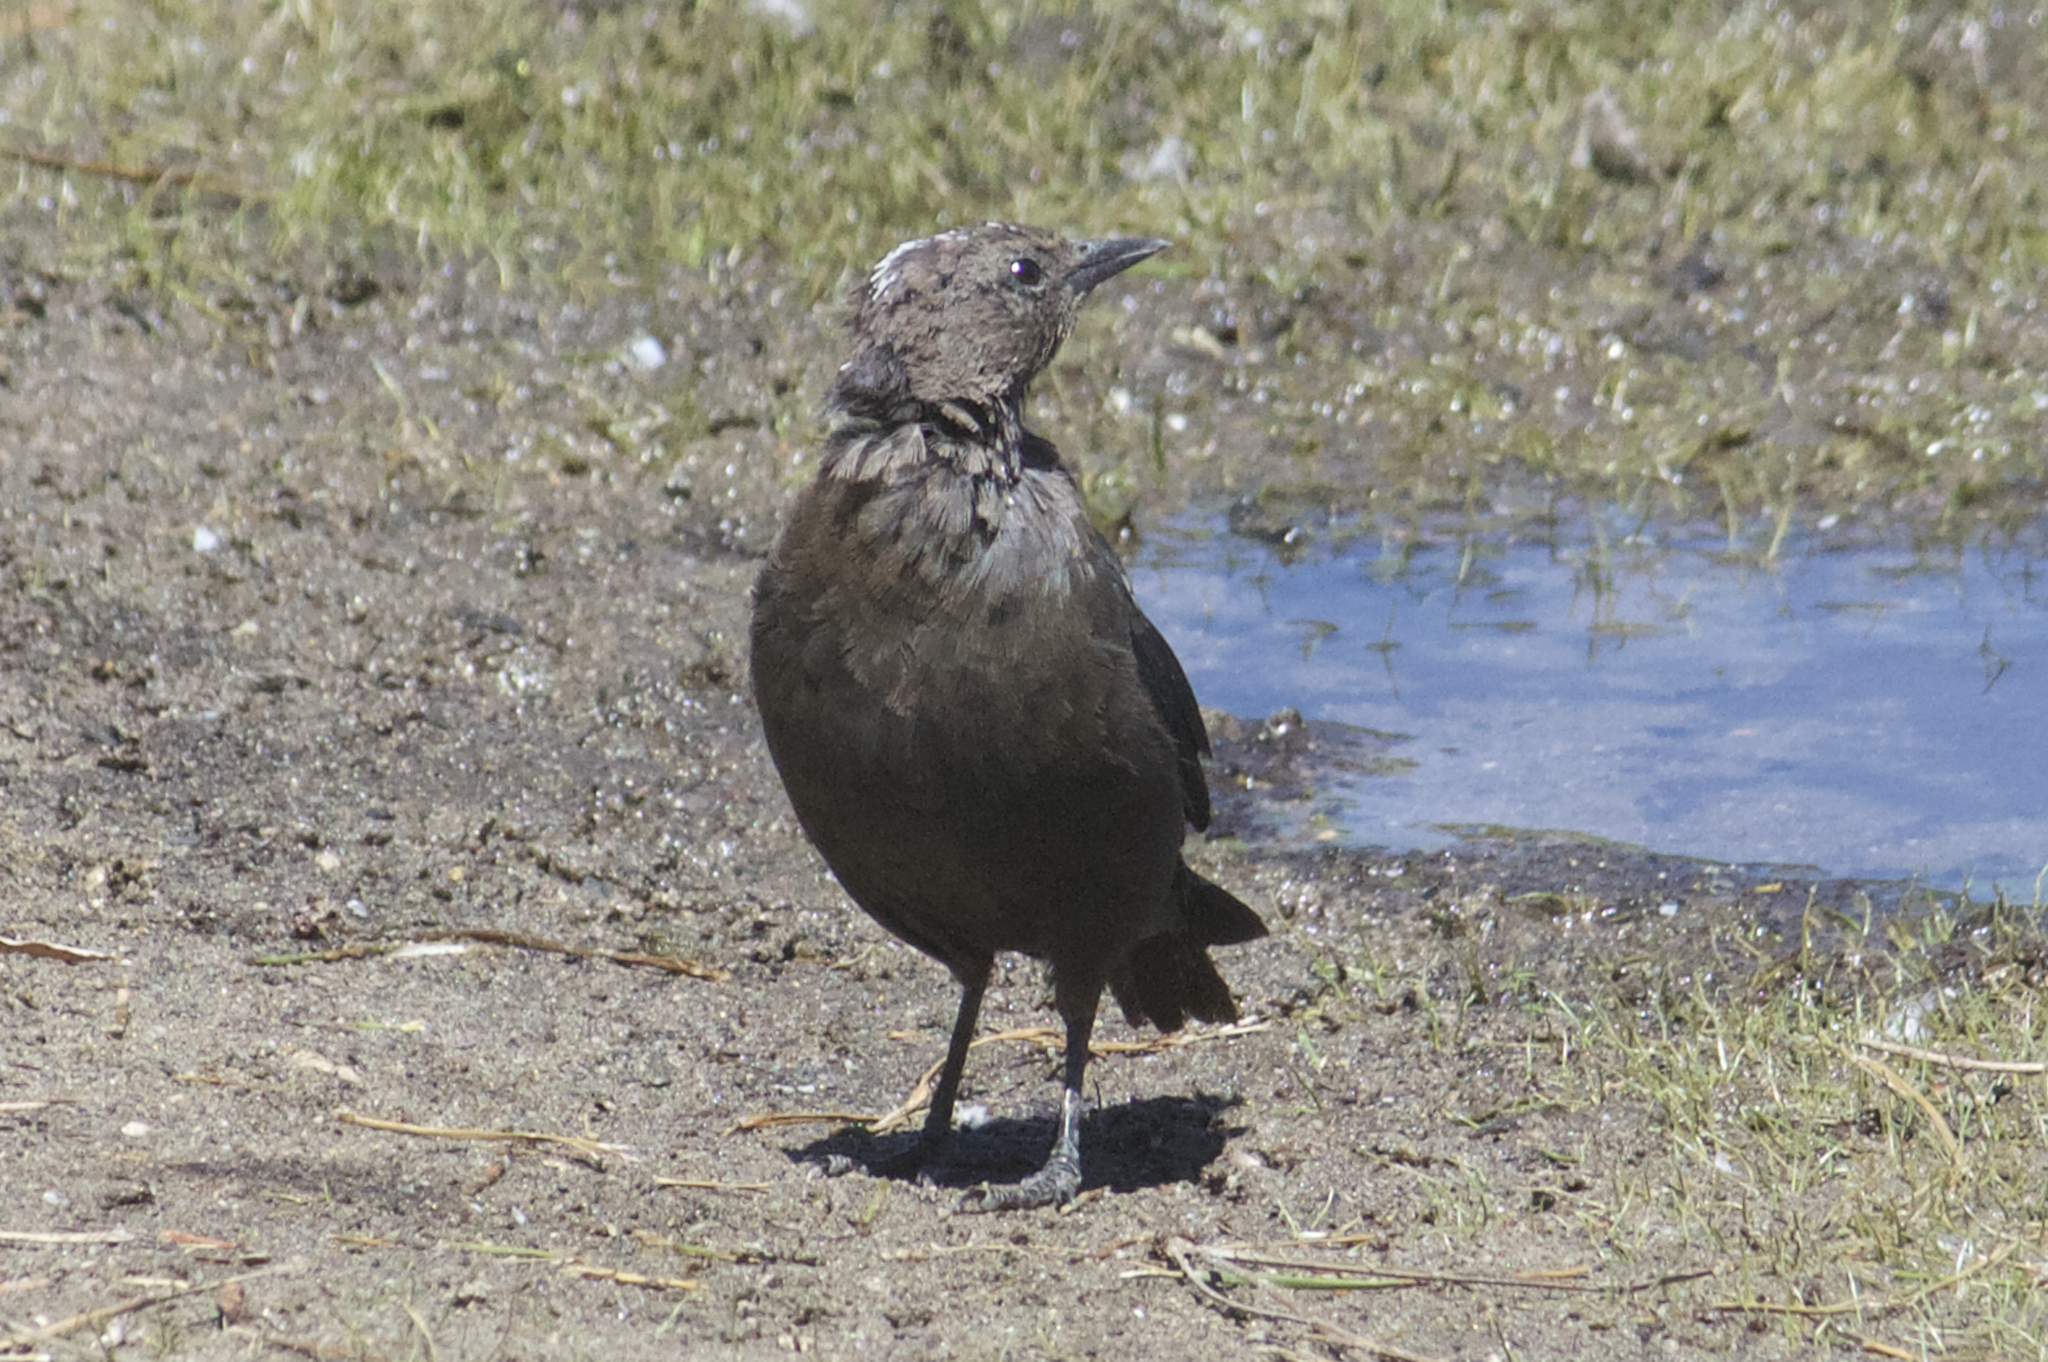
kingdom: Animalia
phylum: Chordata
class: Aves
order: Passeriformes
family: Icteridae
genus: Euphagus
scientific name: Euphagus cyanocephalus
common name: Brewer's blackbird
